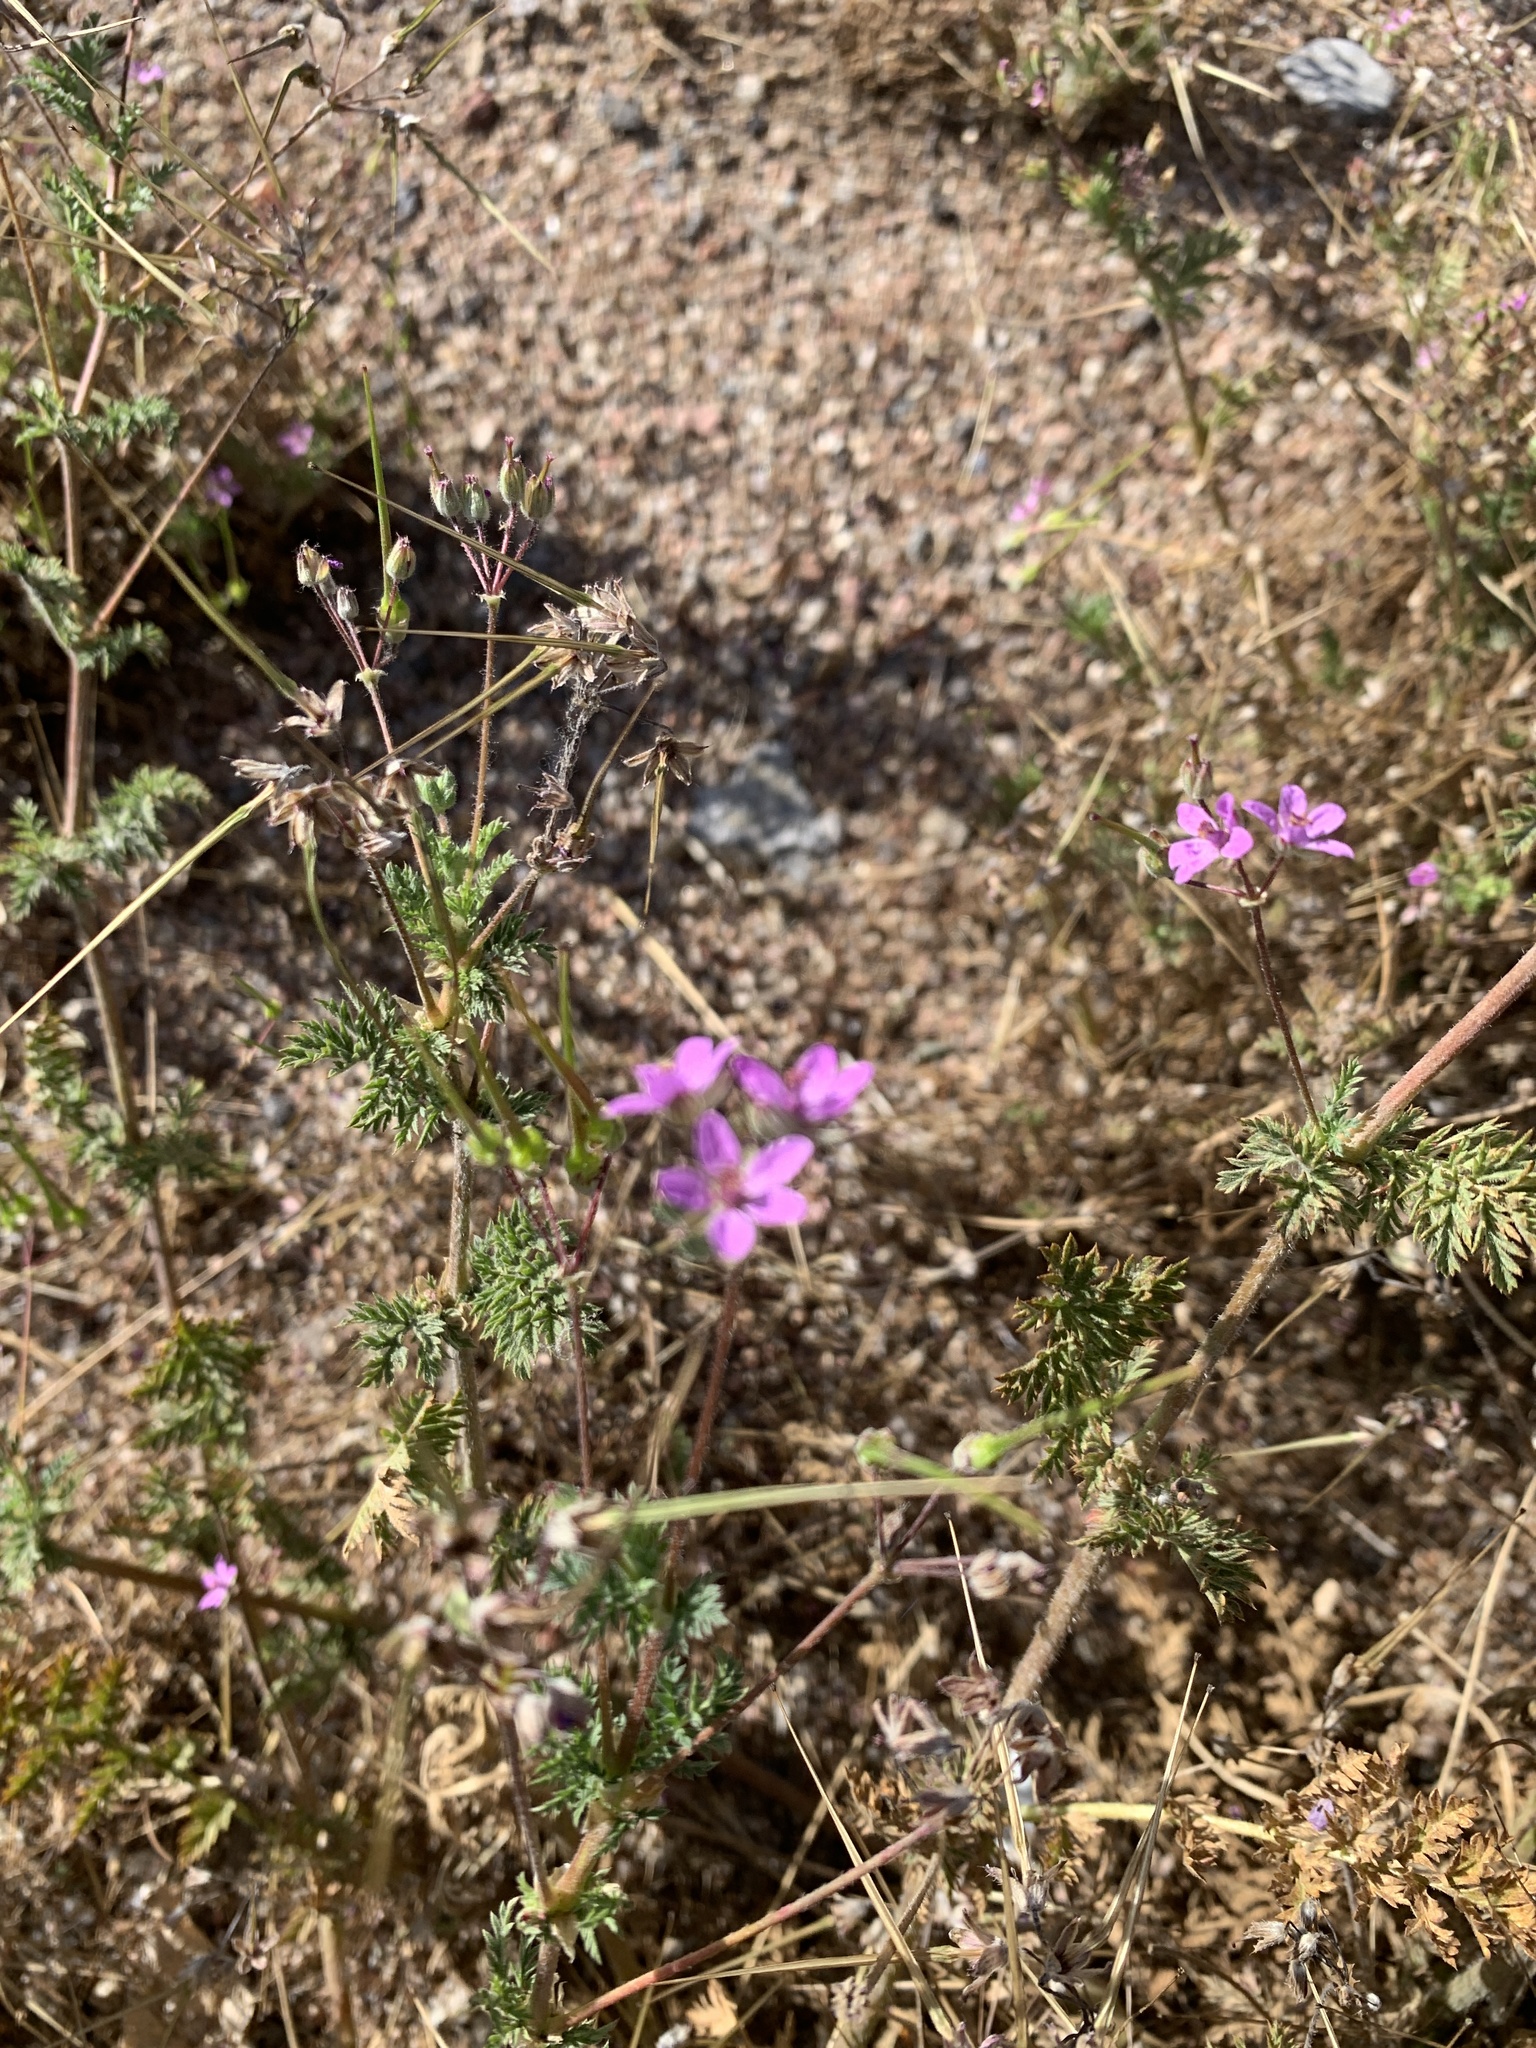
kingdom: Plantae
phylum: Tracheophyta
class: Magnoliopsida
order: Geraniales
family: Geraniaceae
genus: Erodium
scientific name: Erodium cicutarium
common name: Common stork's-bill
